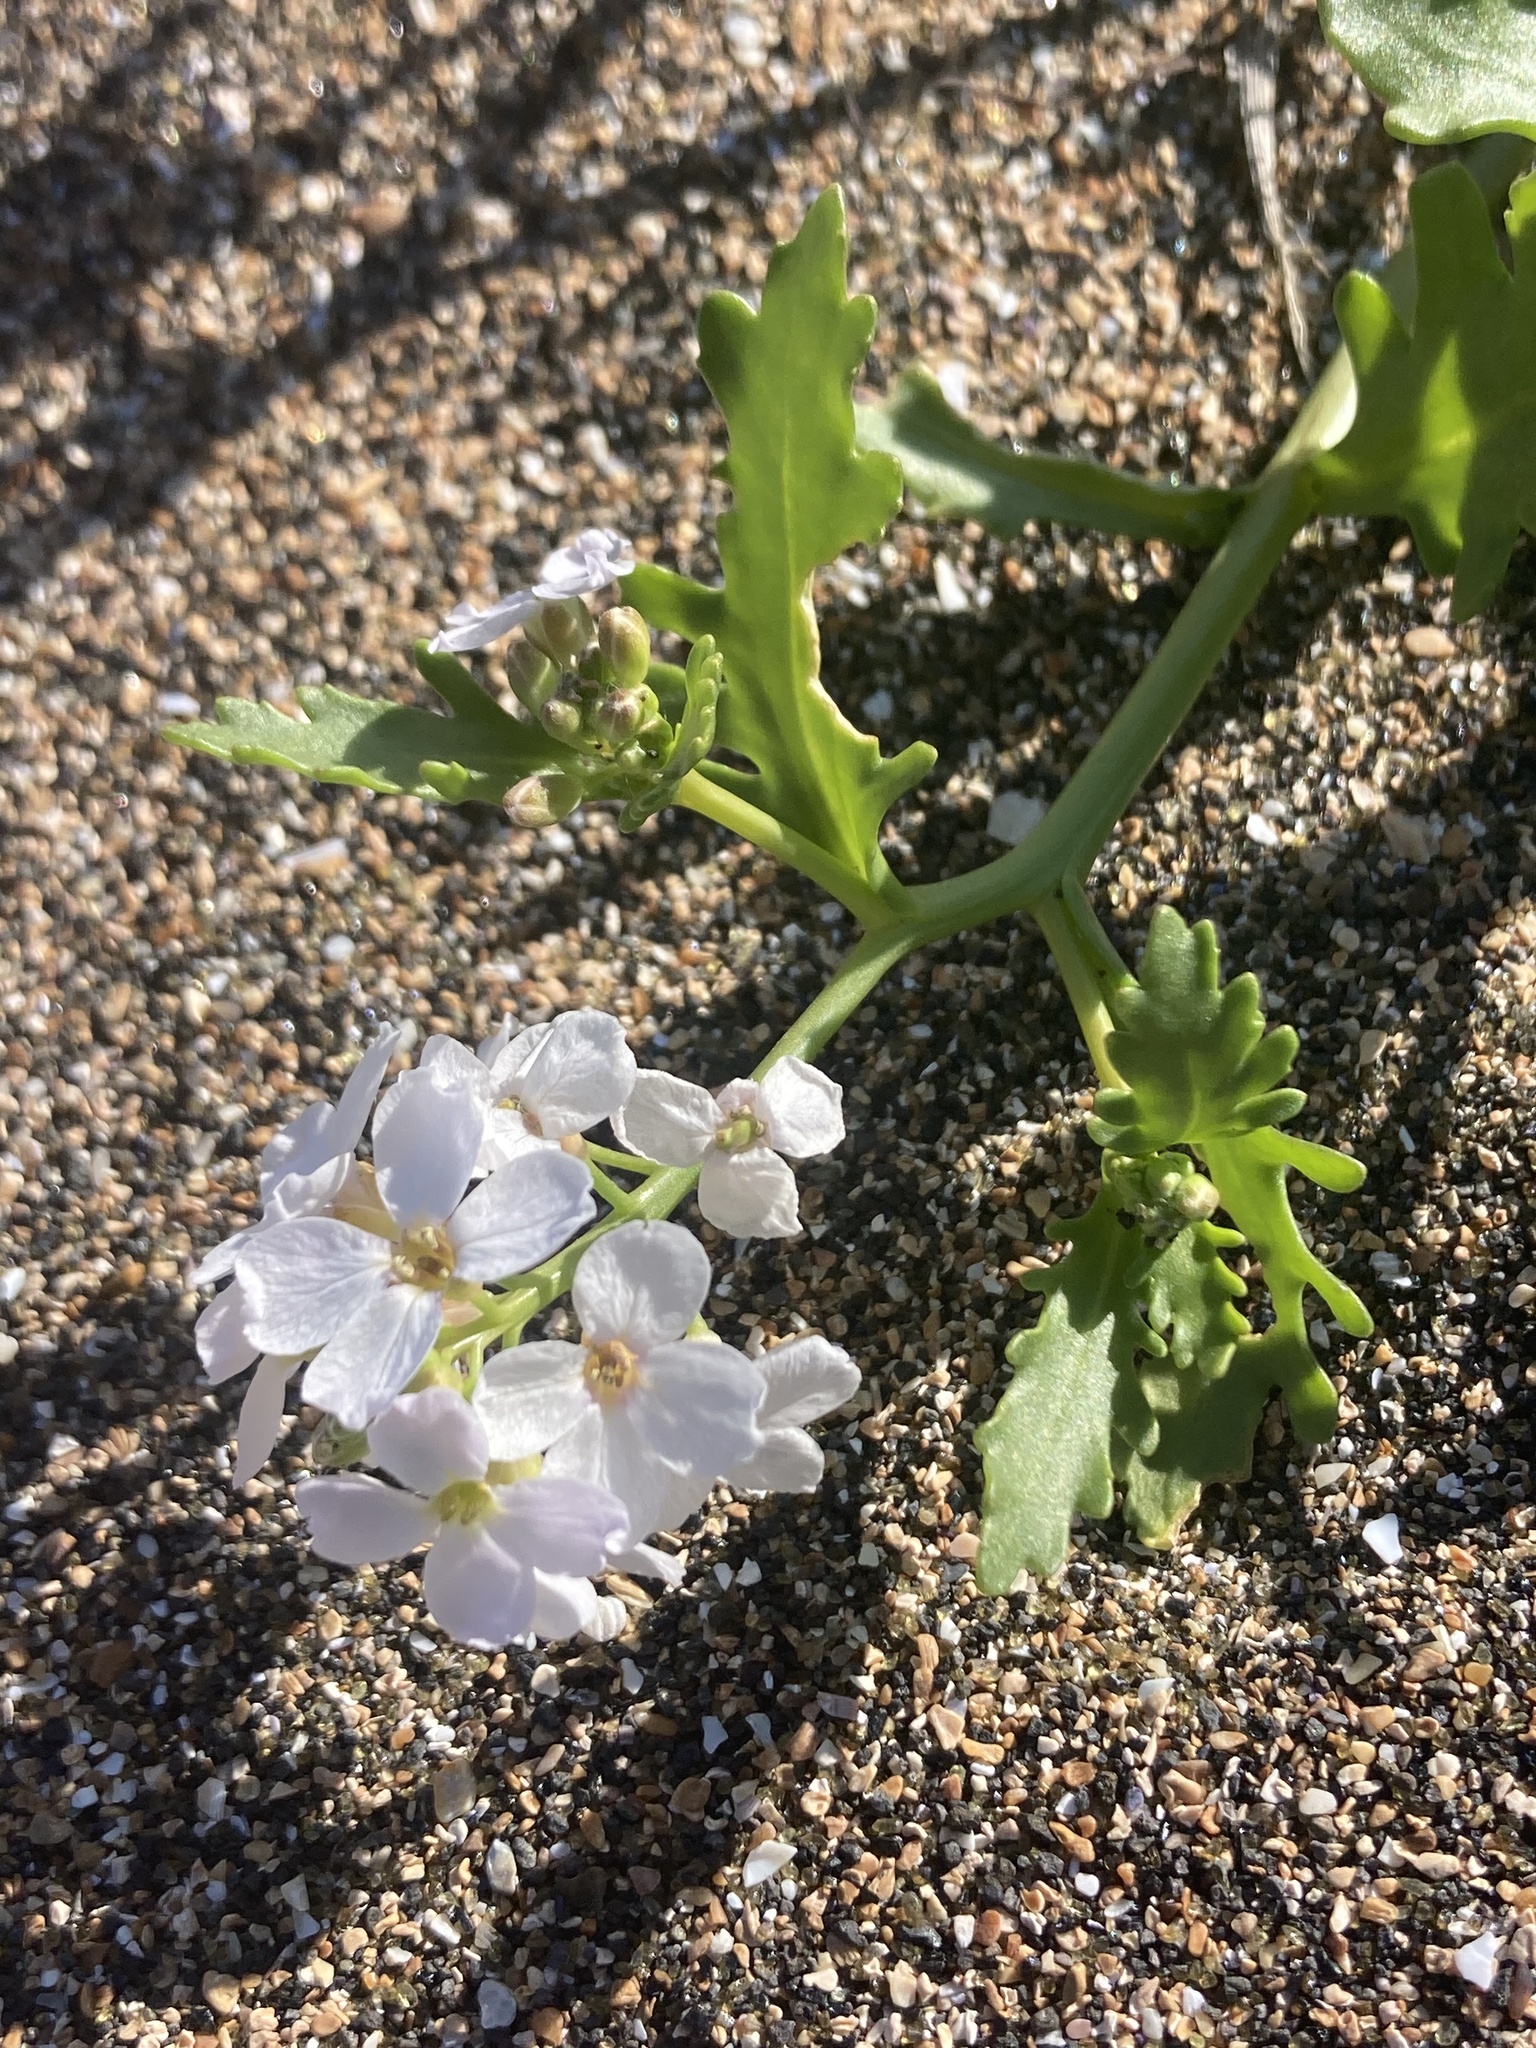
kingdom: Plantae
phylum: Tracheophyta
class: Magnoliopsida
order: Brassicales
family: Brassicaceae
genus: Cakile
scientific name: Cakile arctica
